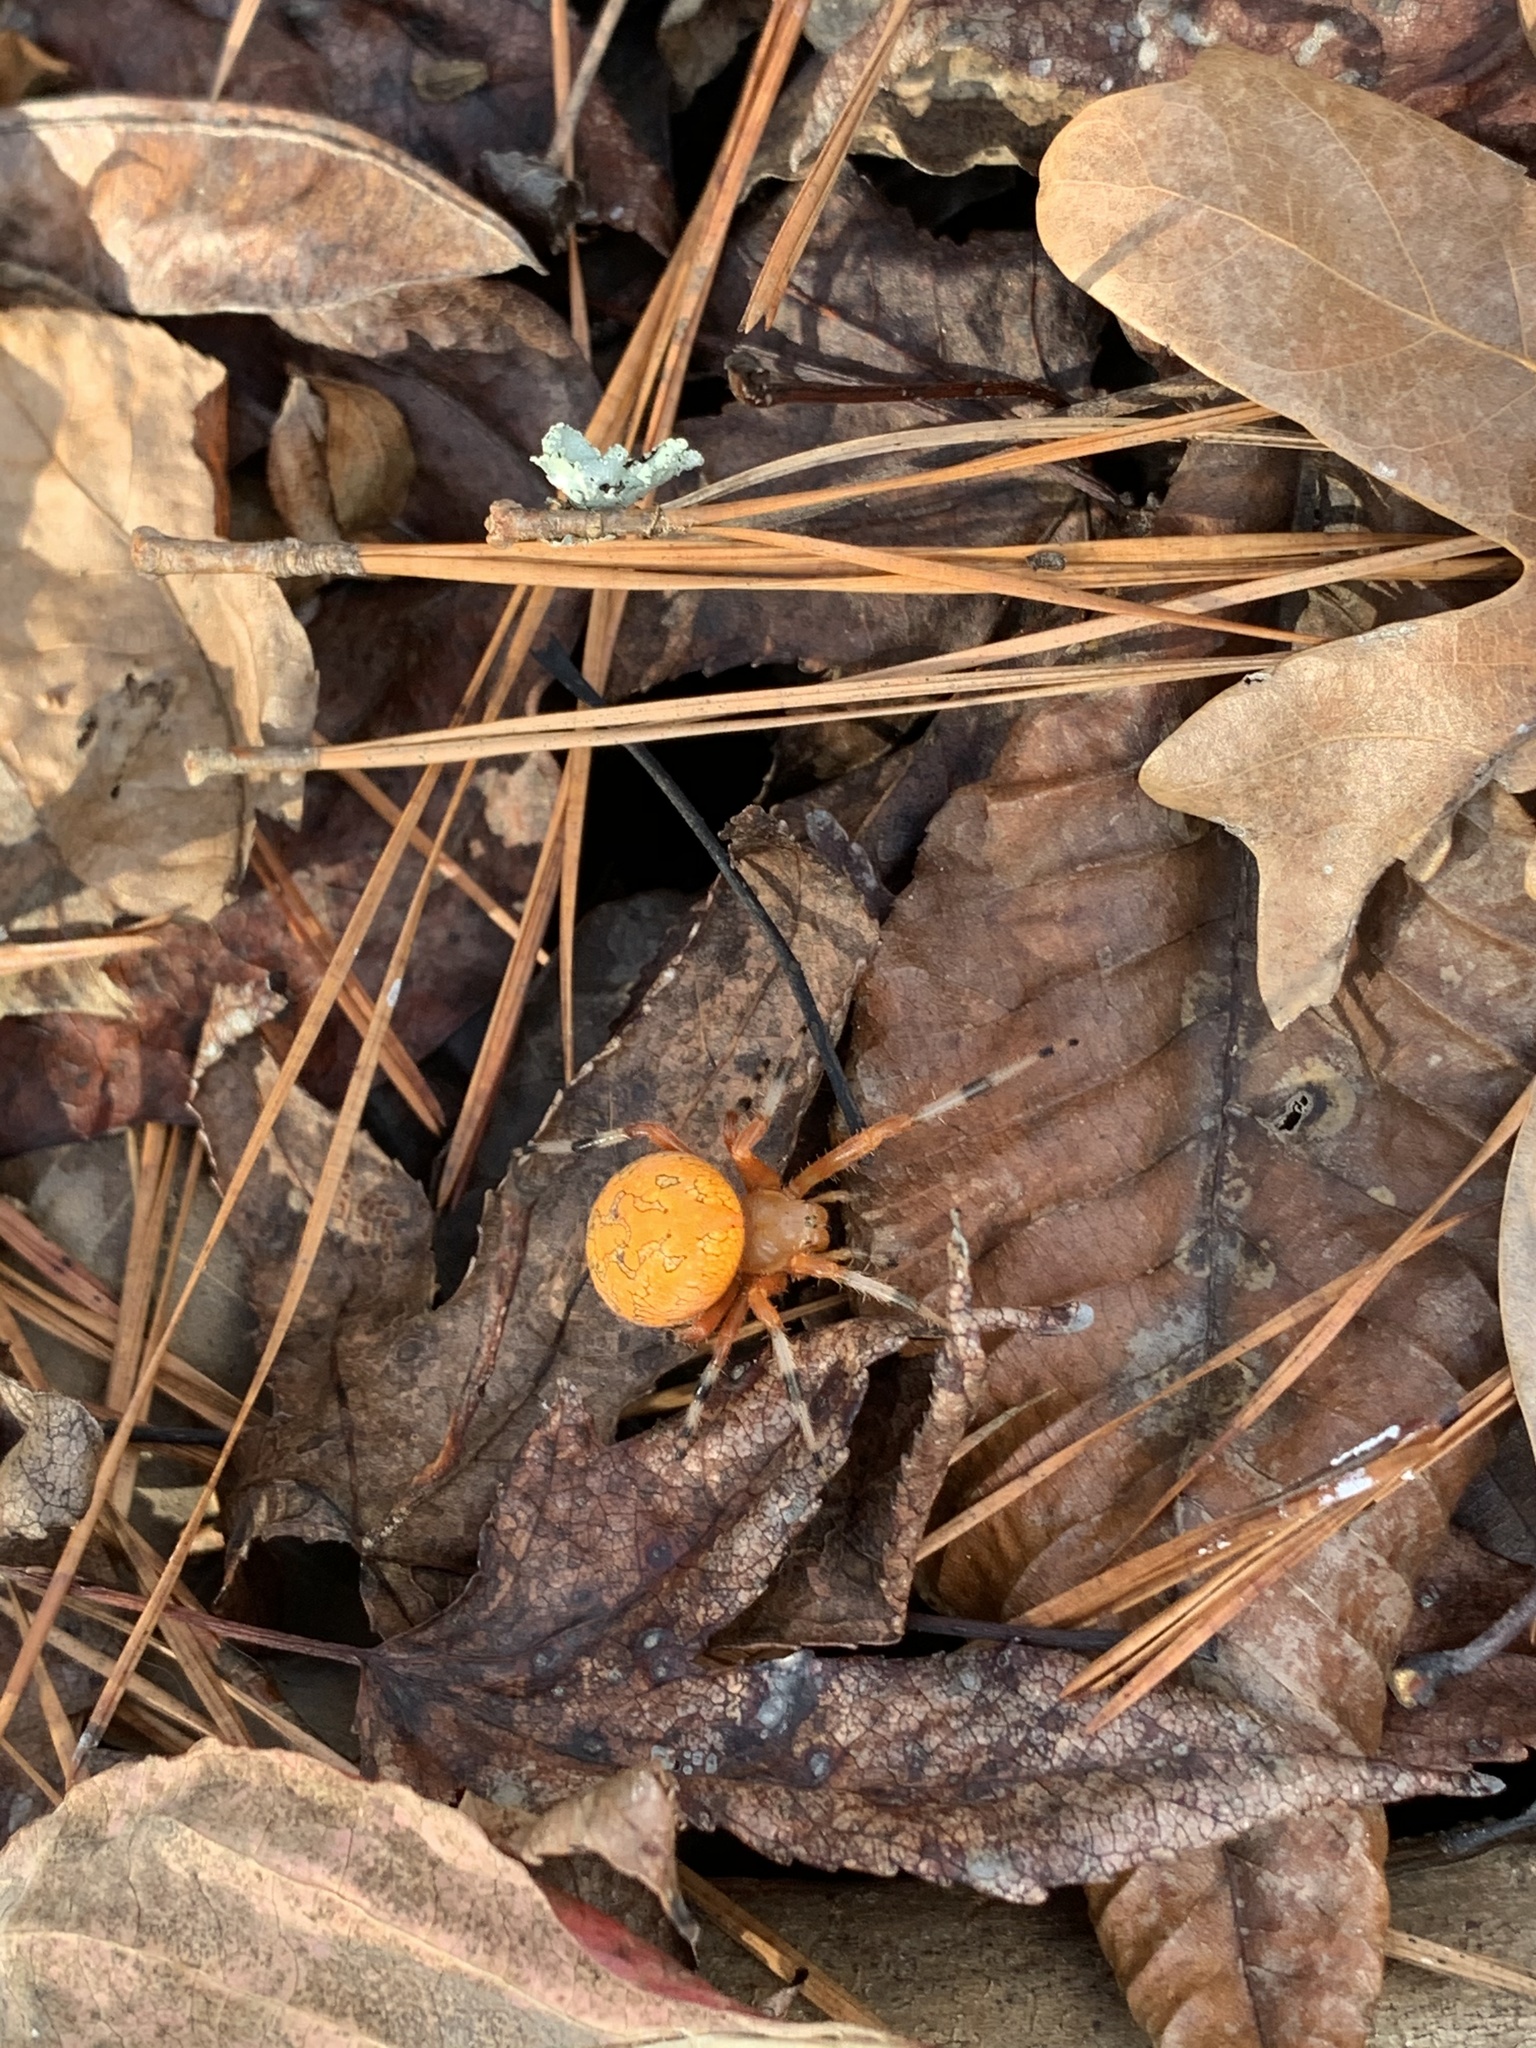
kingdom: Animalia
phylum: Arthropoda
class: Arachnida
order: Araneae
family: Araneidae
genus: Araneus
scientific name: Araneus marmoreus
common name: Marbled orbweaver
